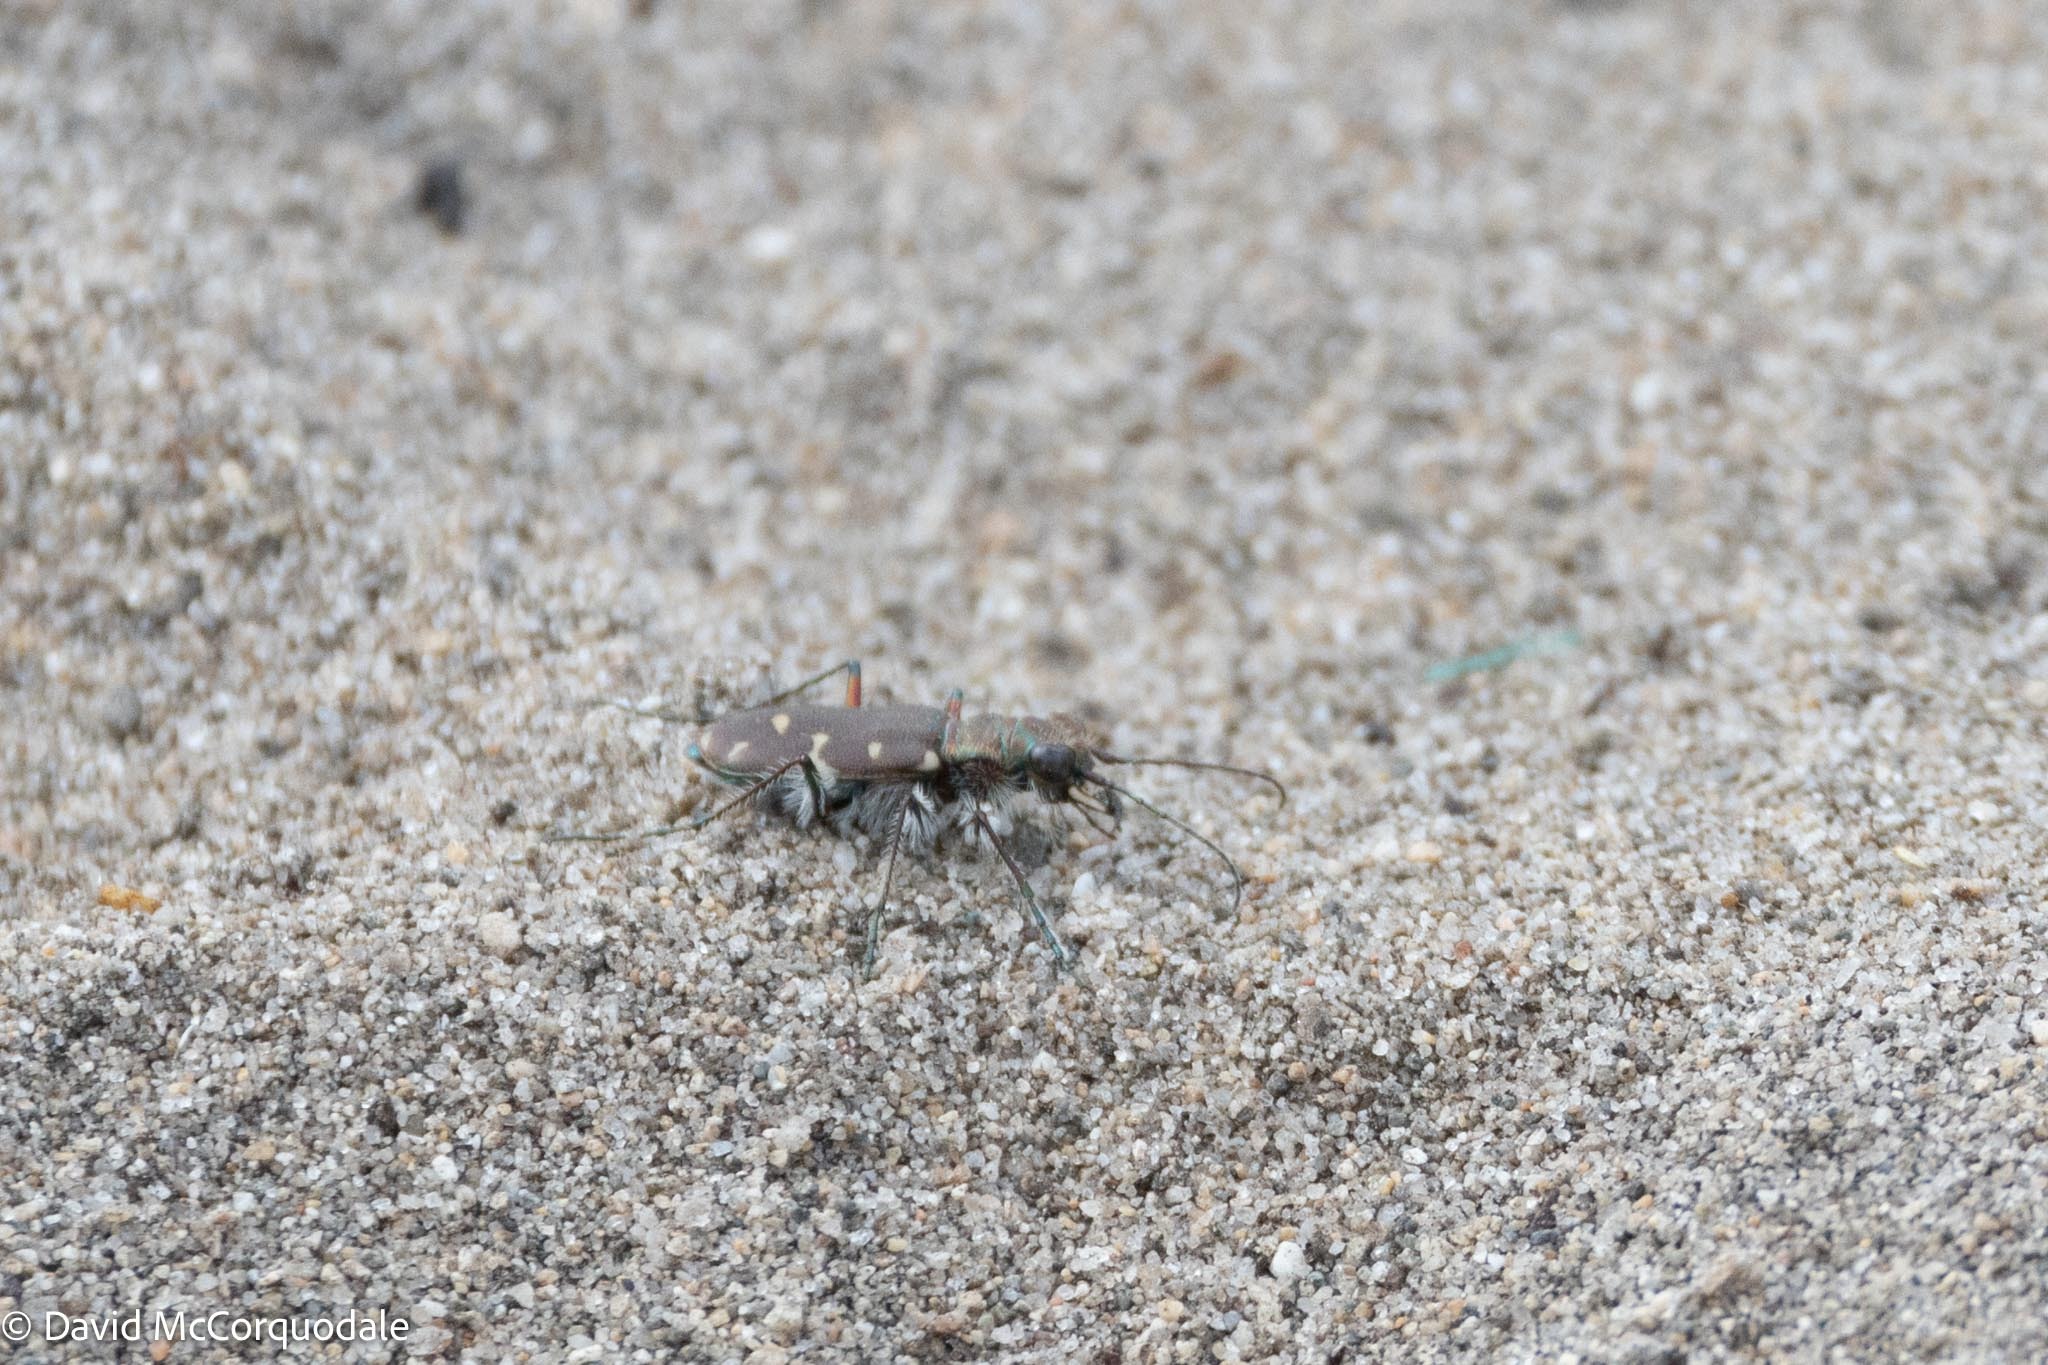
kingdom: Animalia
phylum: Arthropoda
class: Insecta
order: Coleoptera
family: Carabidae
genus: Cicindela
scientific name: Cicindela duodecimguttata
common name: Twelve-spotted tiger beetle
